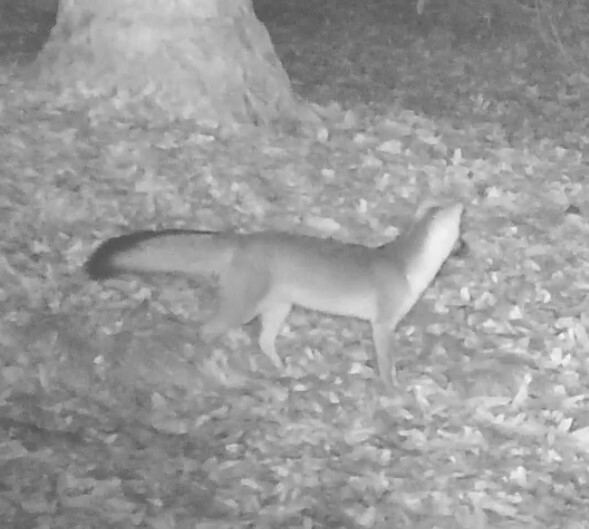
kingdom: Animalia
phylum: Chordata
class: Mammalia
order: Carnivora
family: Canidae
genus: Urocyon
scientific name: Urocyon cinereoargenteus
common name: Gray fox
